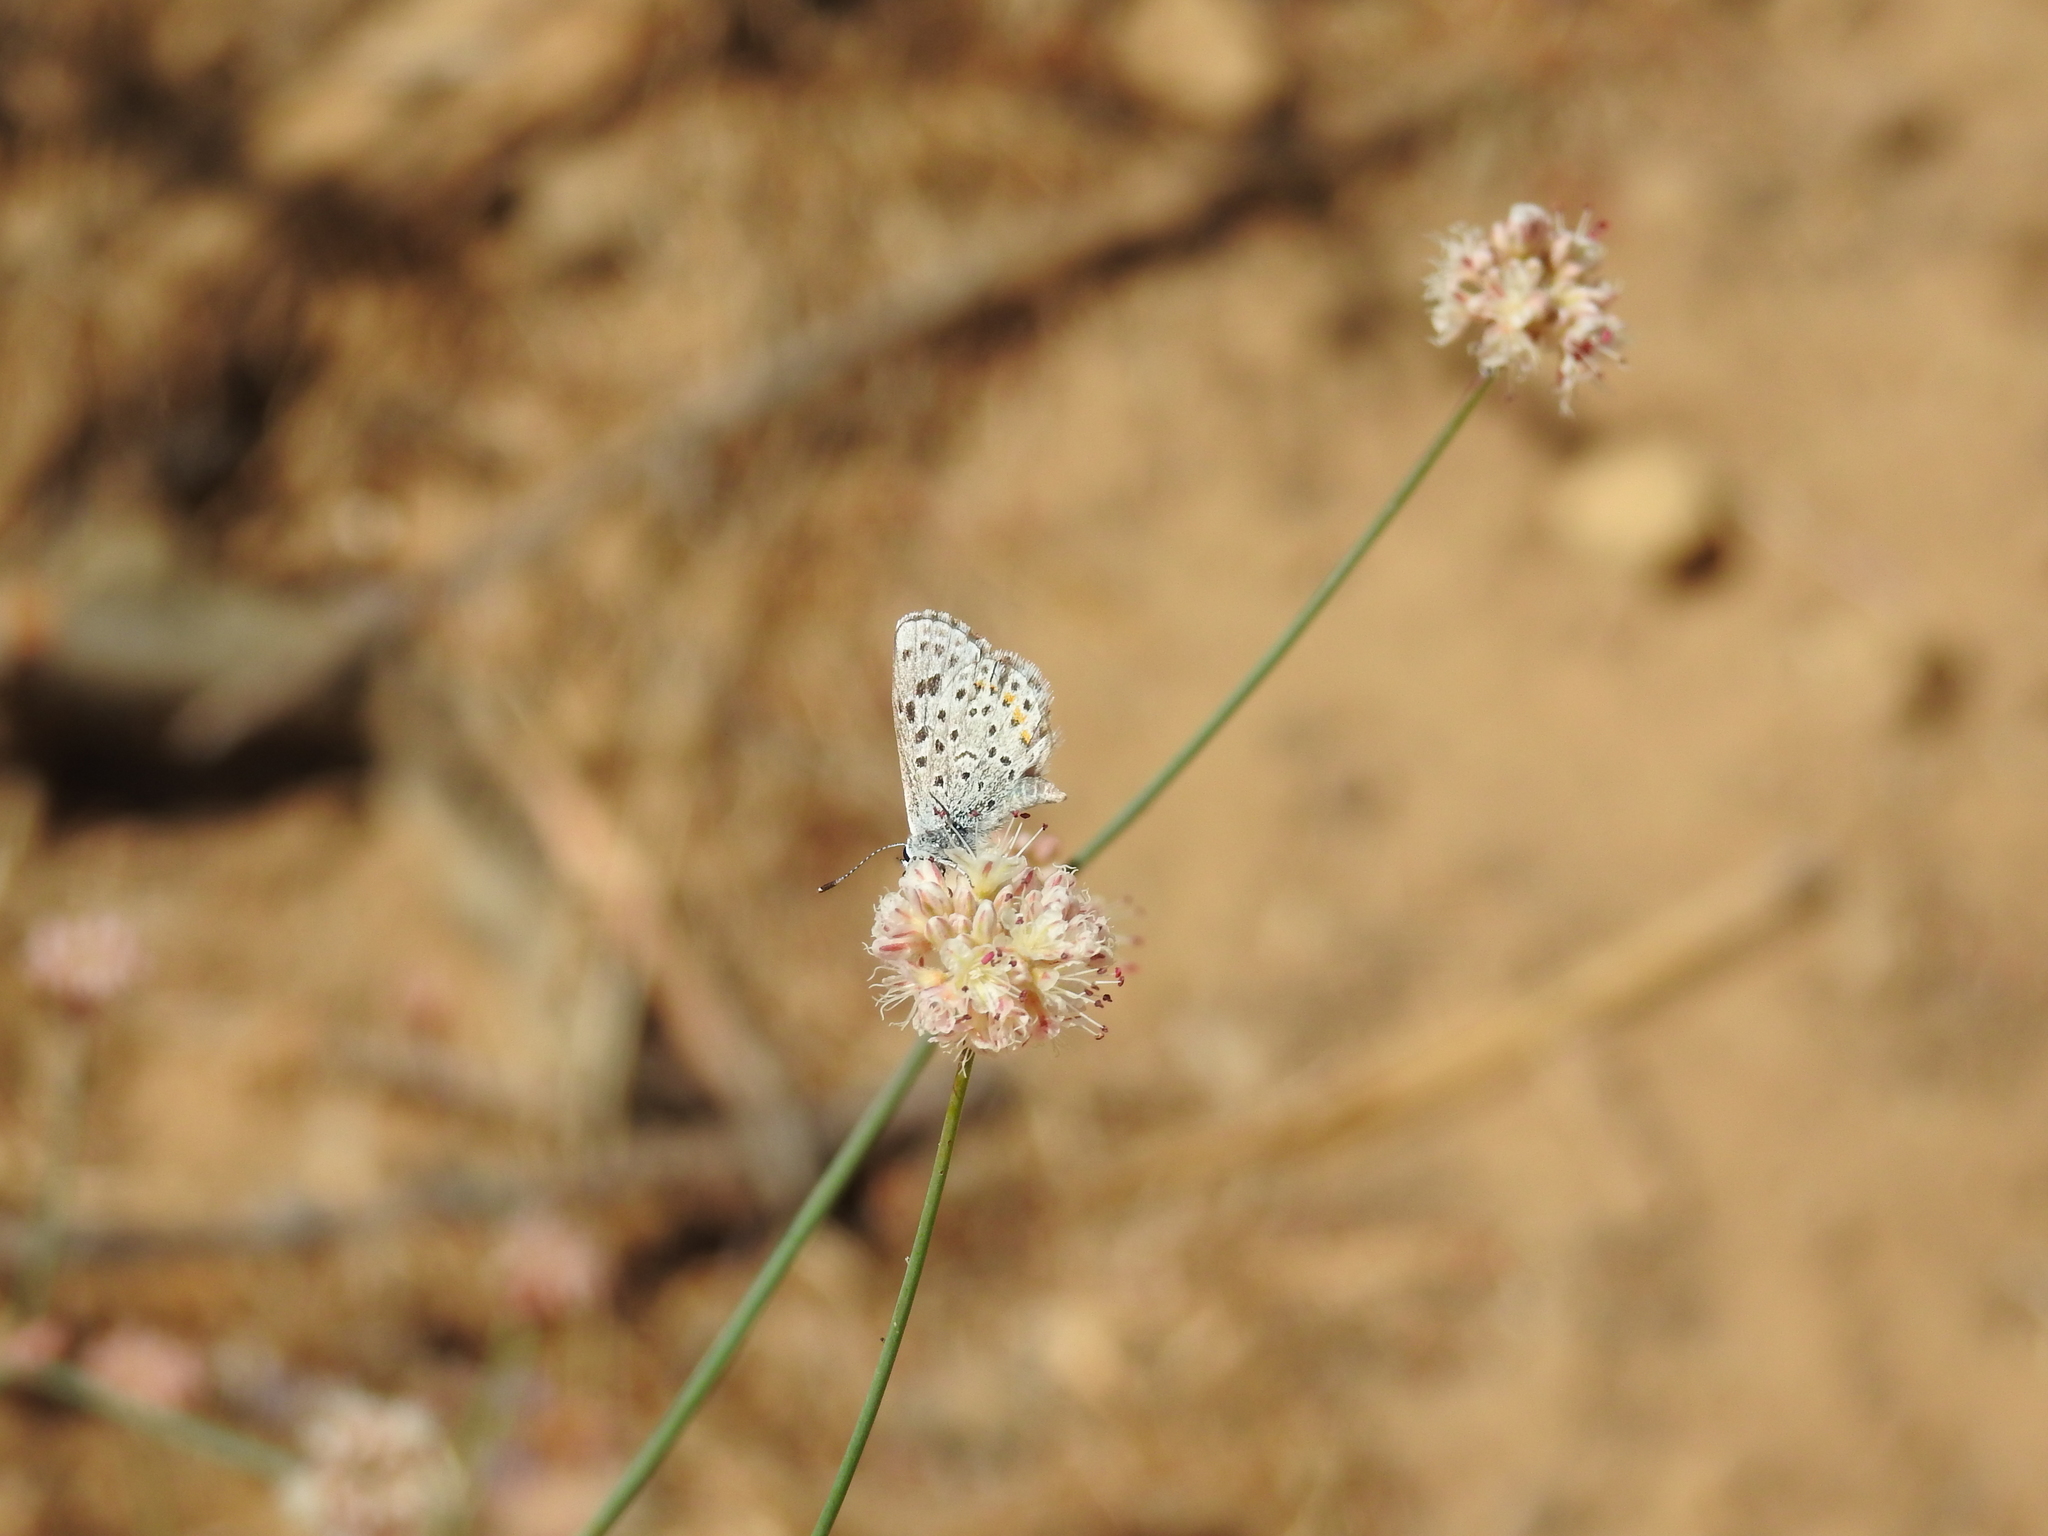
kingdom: Animalia
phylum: Arthropoda
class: Insecta
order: Lepidoptera
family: Lycaenidae
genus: Euphilotes
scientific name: Euphilotes enoptes
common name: Dotted blue
